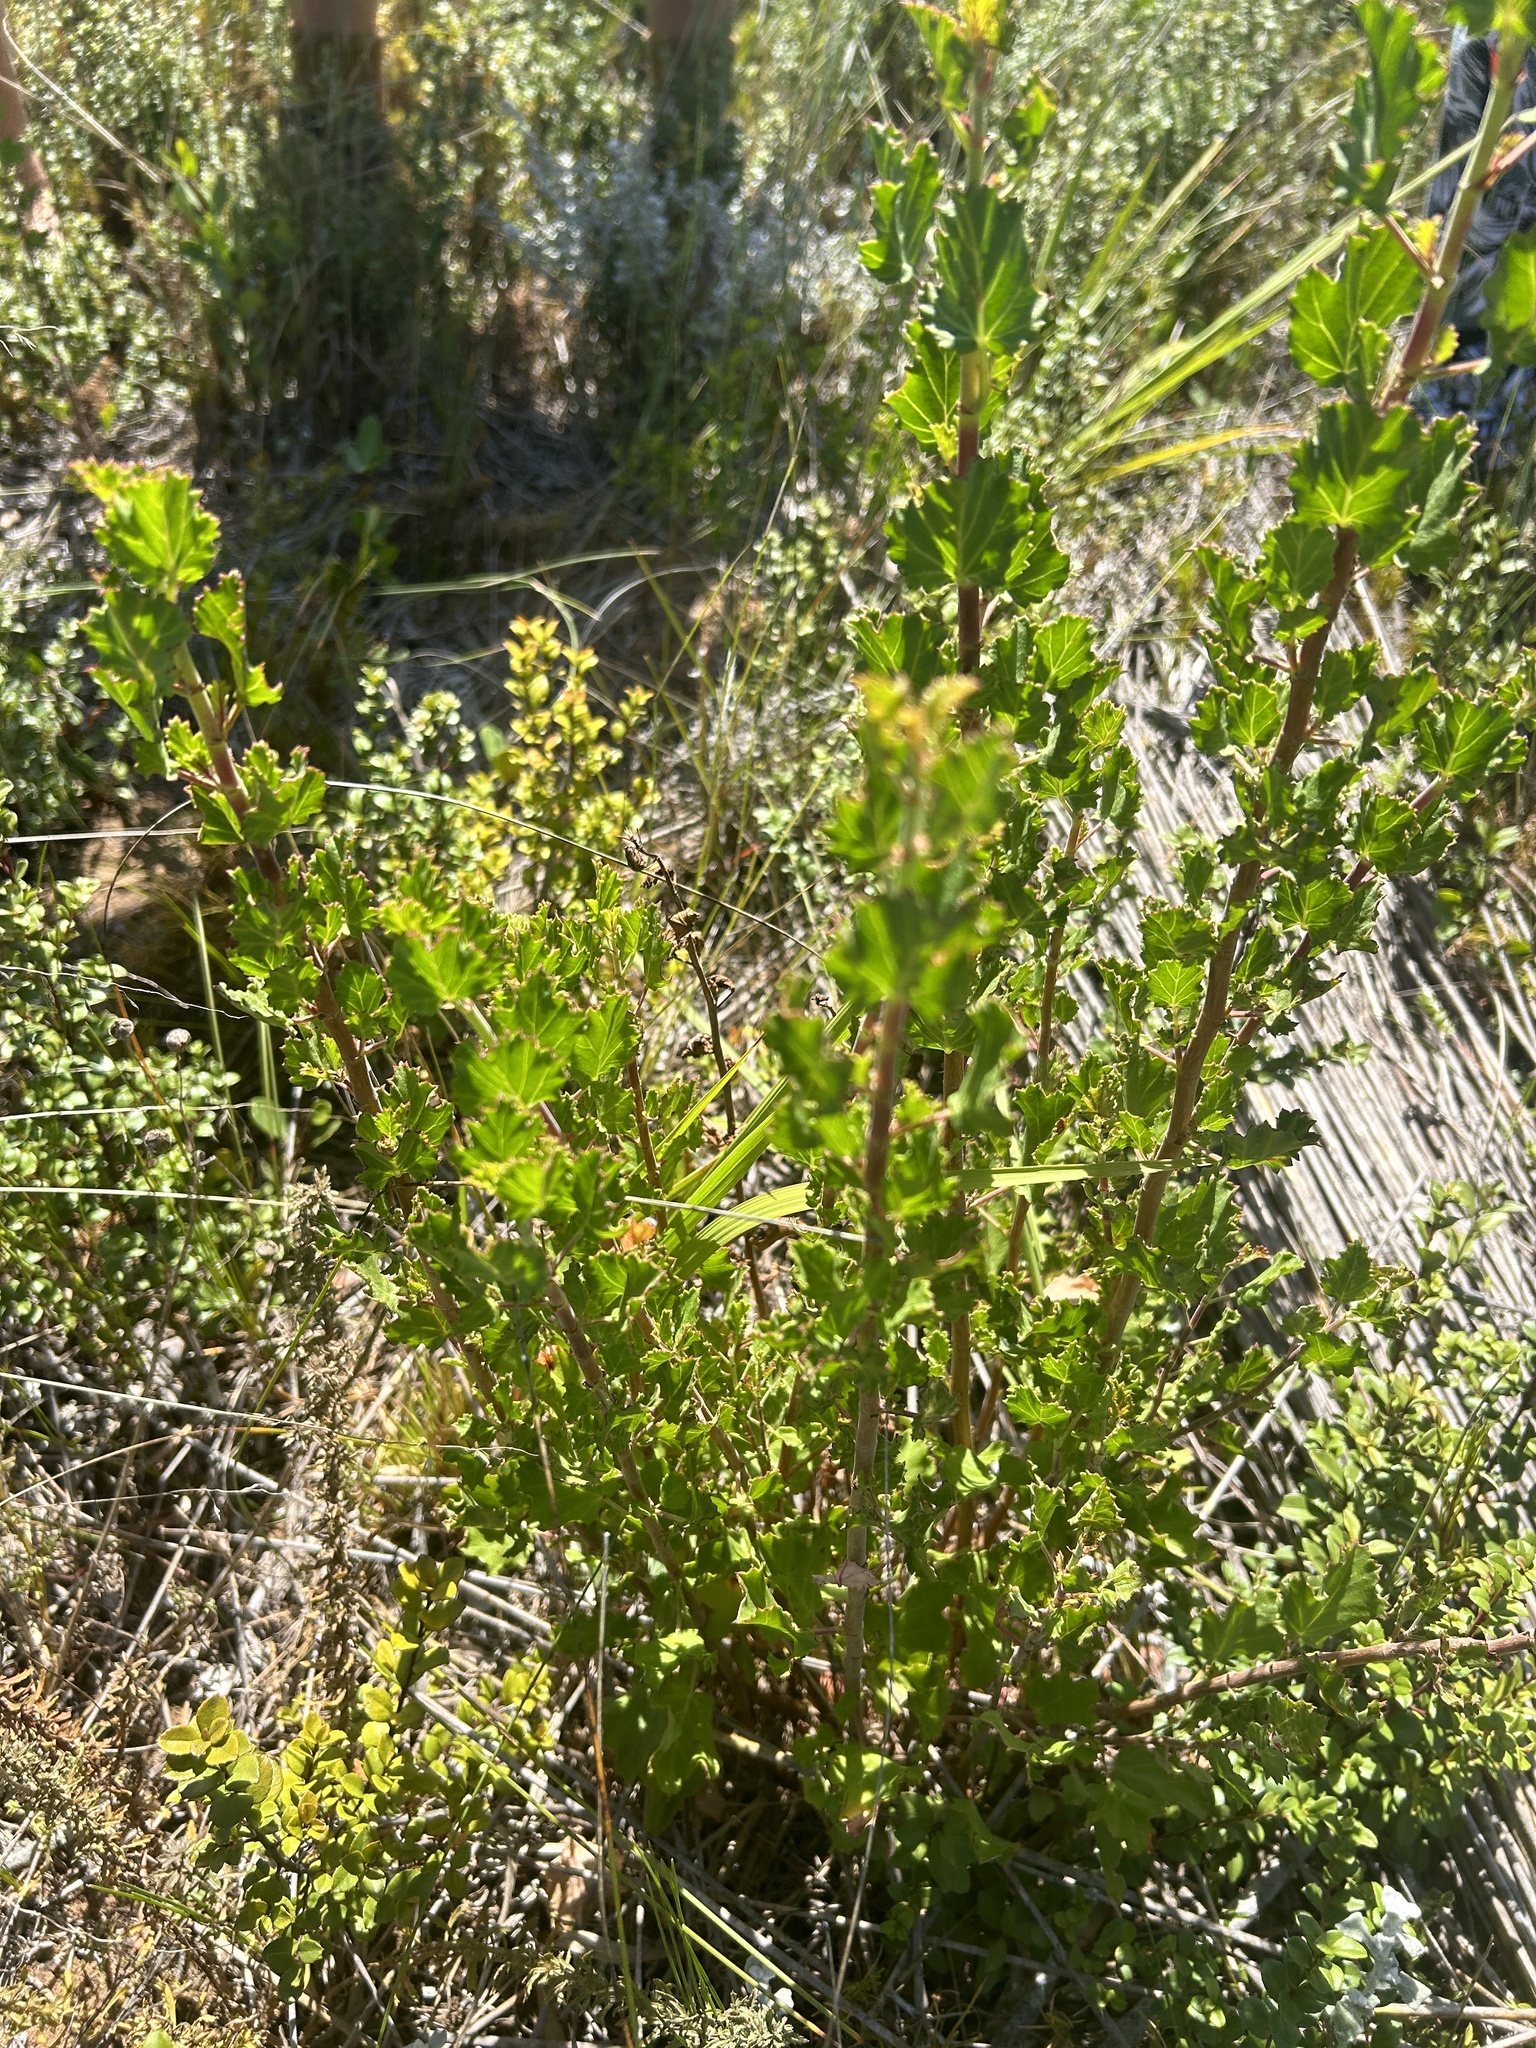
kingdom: Plantae
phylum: Tracheophyta
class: Magnoliopsida
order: Geraniales
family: Geraniaceae
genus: Pelargonium
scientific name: Pelargonium betulinum
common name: Birch-leaf pelargonium
